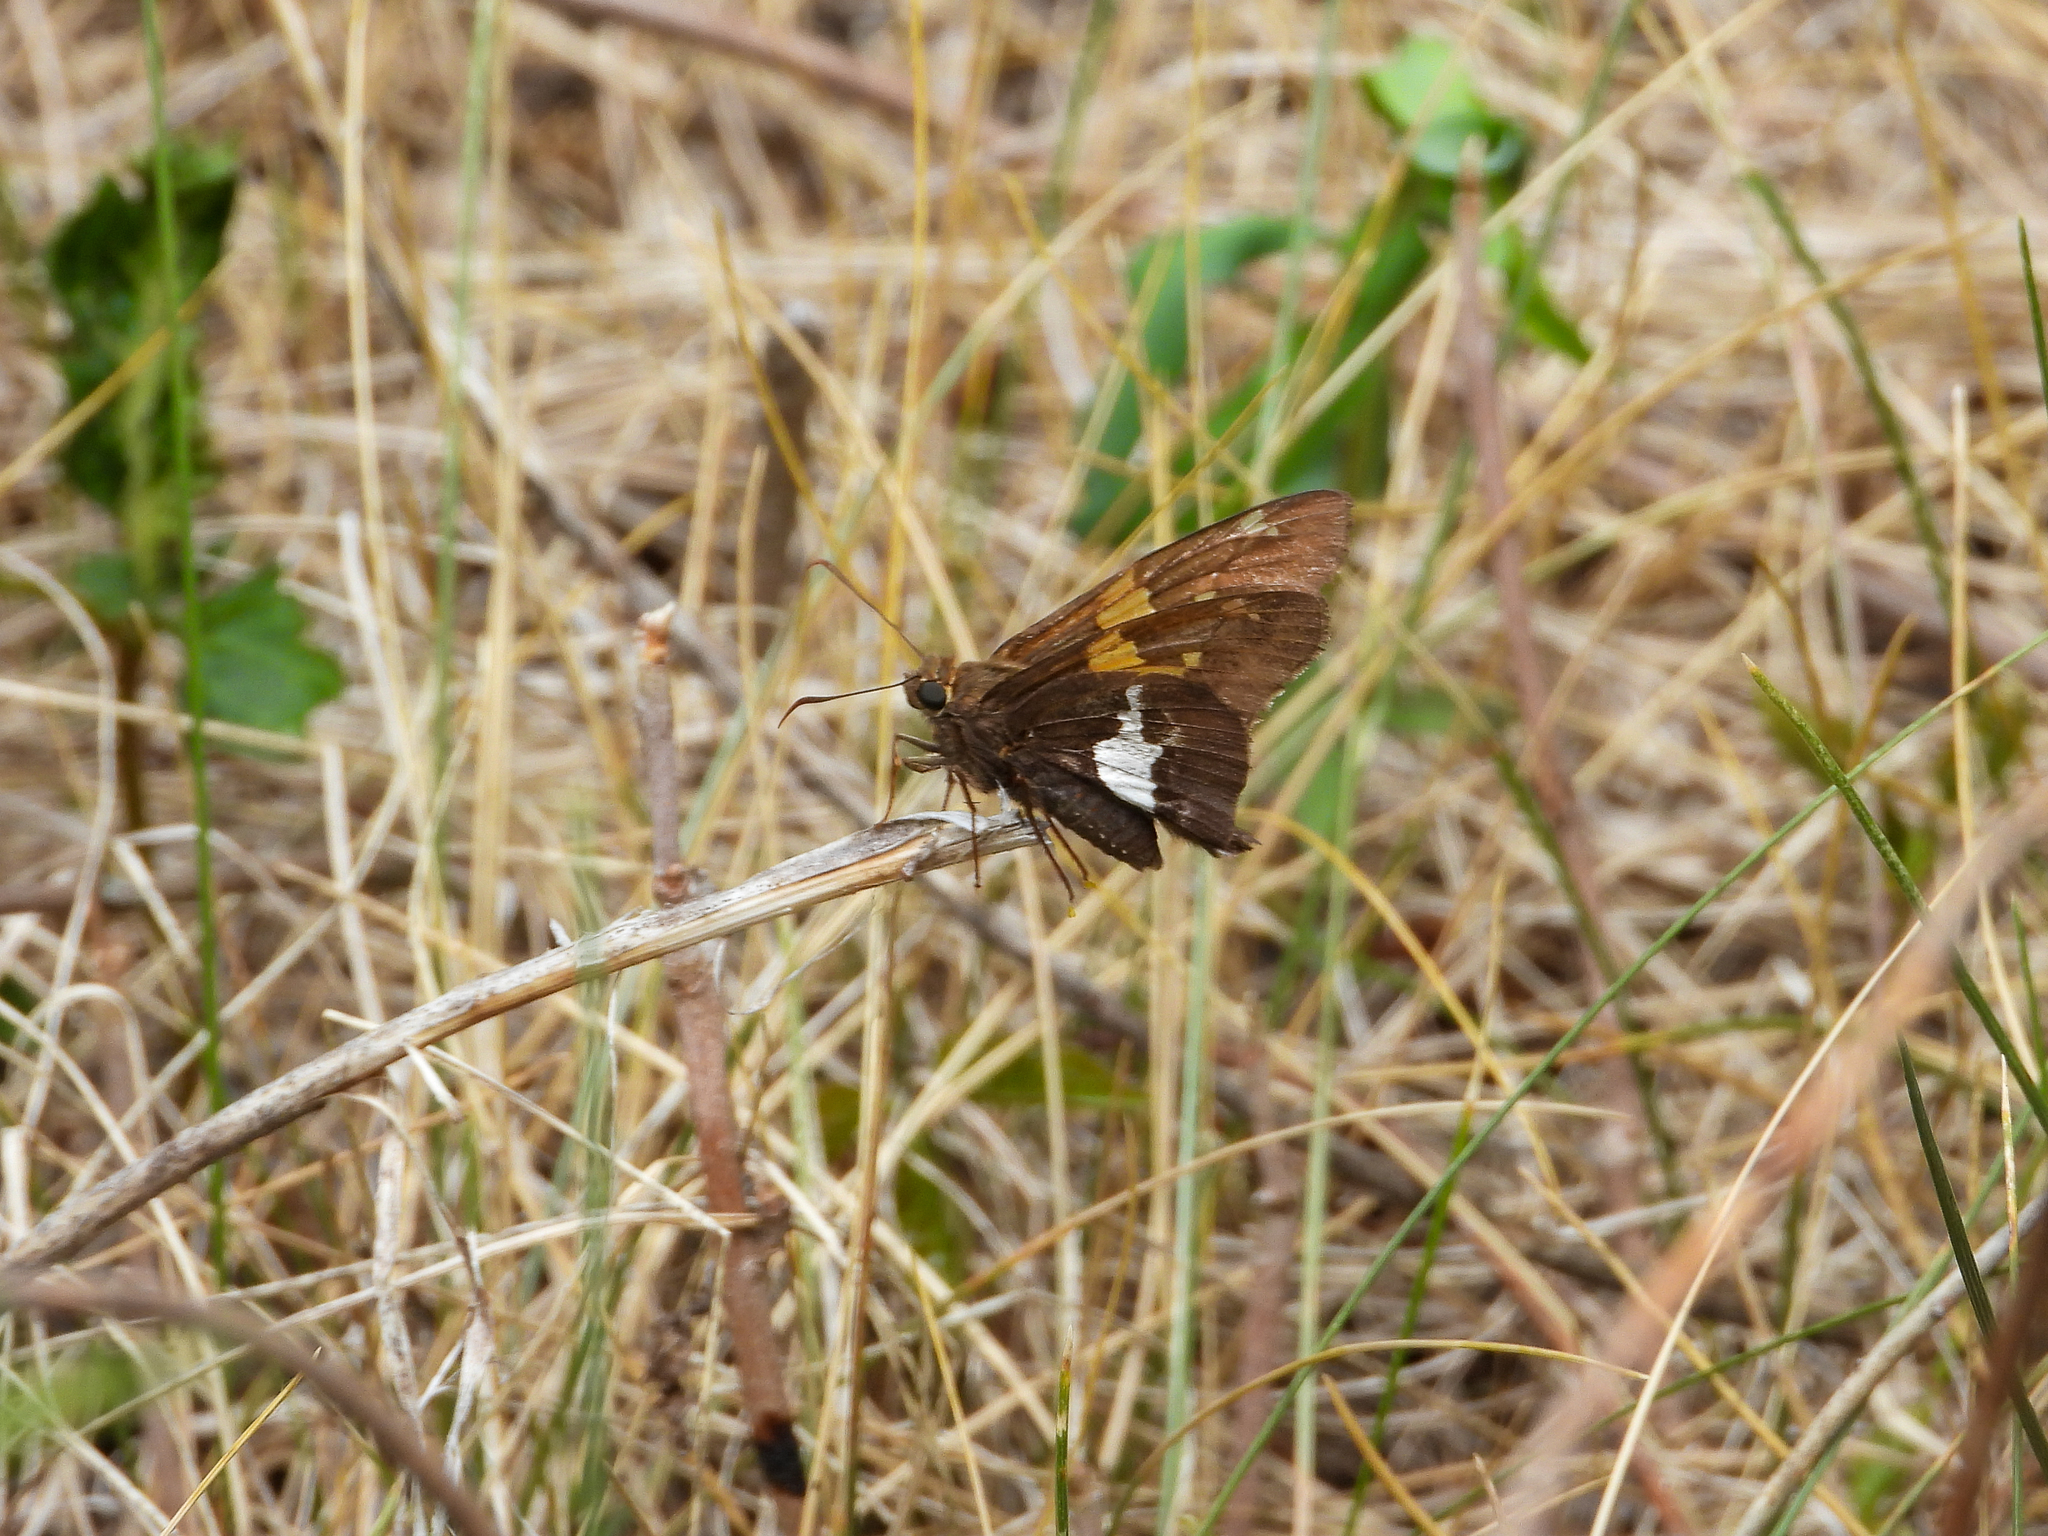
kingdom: Animalia
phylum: Arthropoda
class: Insecta
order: Lepidoptera
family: Hesperiidae
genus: Epargyreus
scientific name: Epargyreus clarus
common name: Silver-spotted skipper
